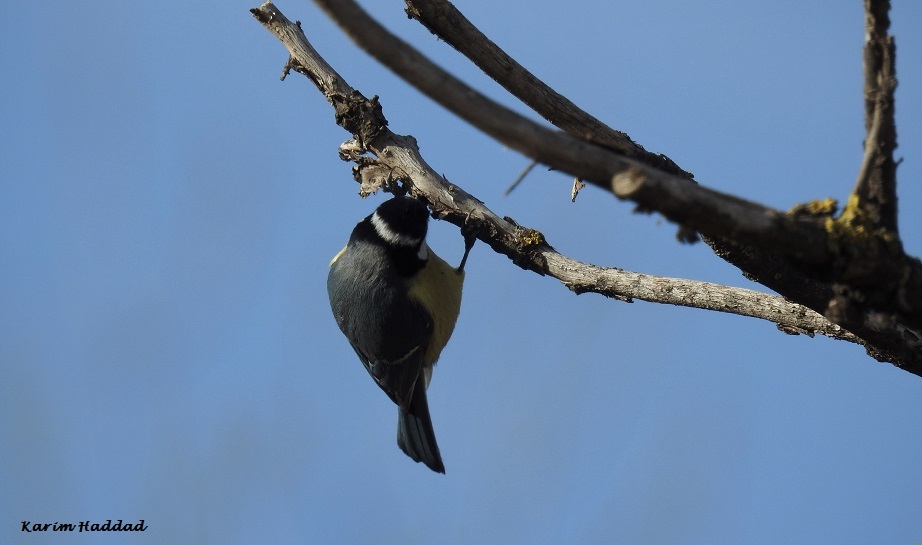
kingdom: Animalia
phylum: Chordata
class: Aves
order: Passeriformes
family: Paridae
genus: Cyanistes
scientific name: Cyanistes teneriffae
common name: African blue tit
